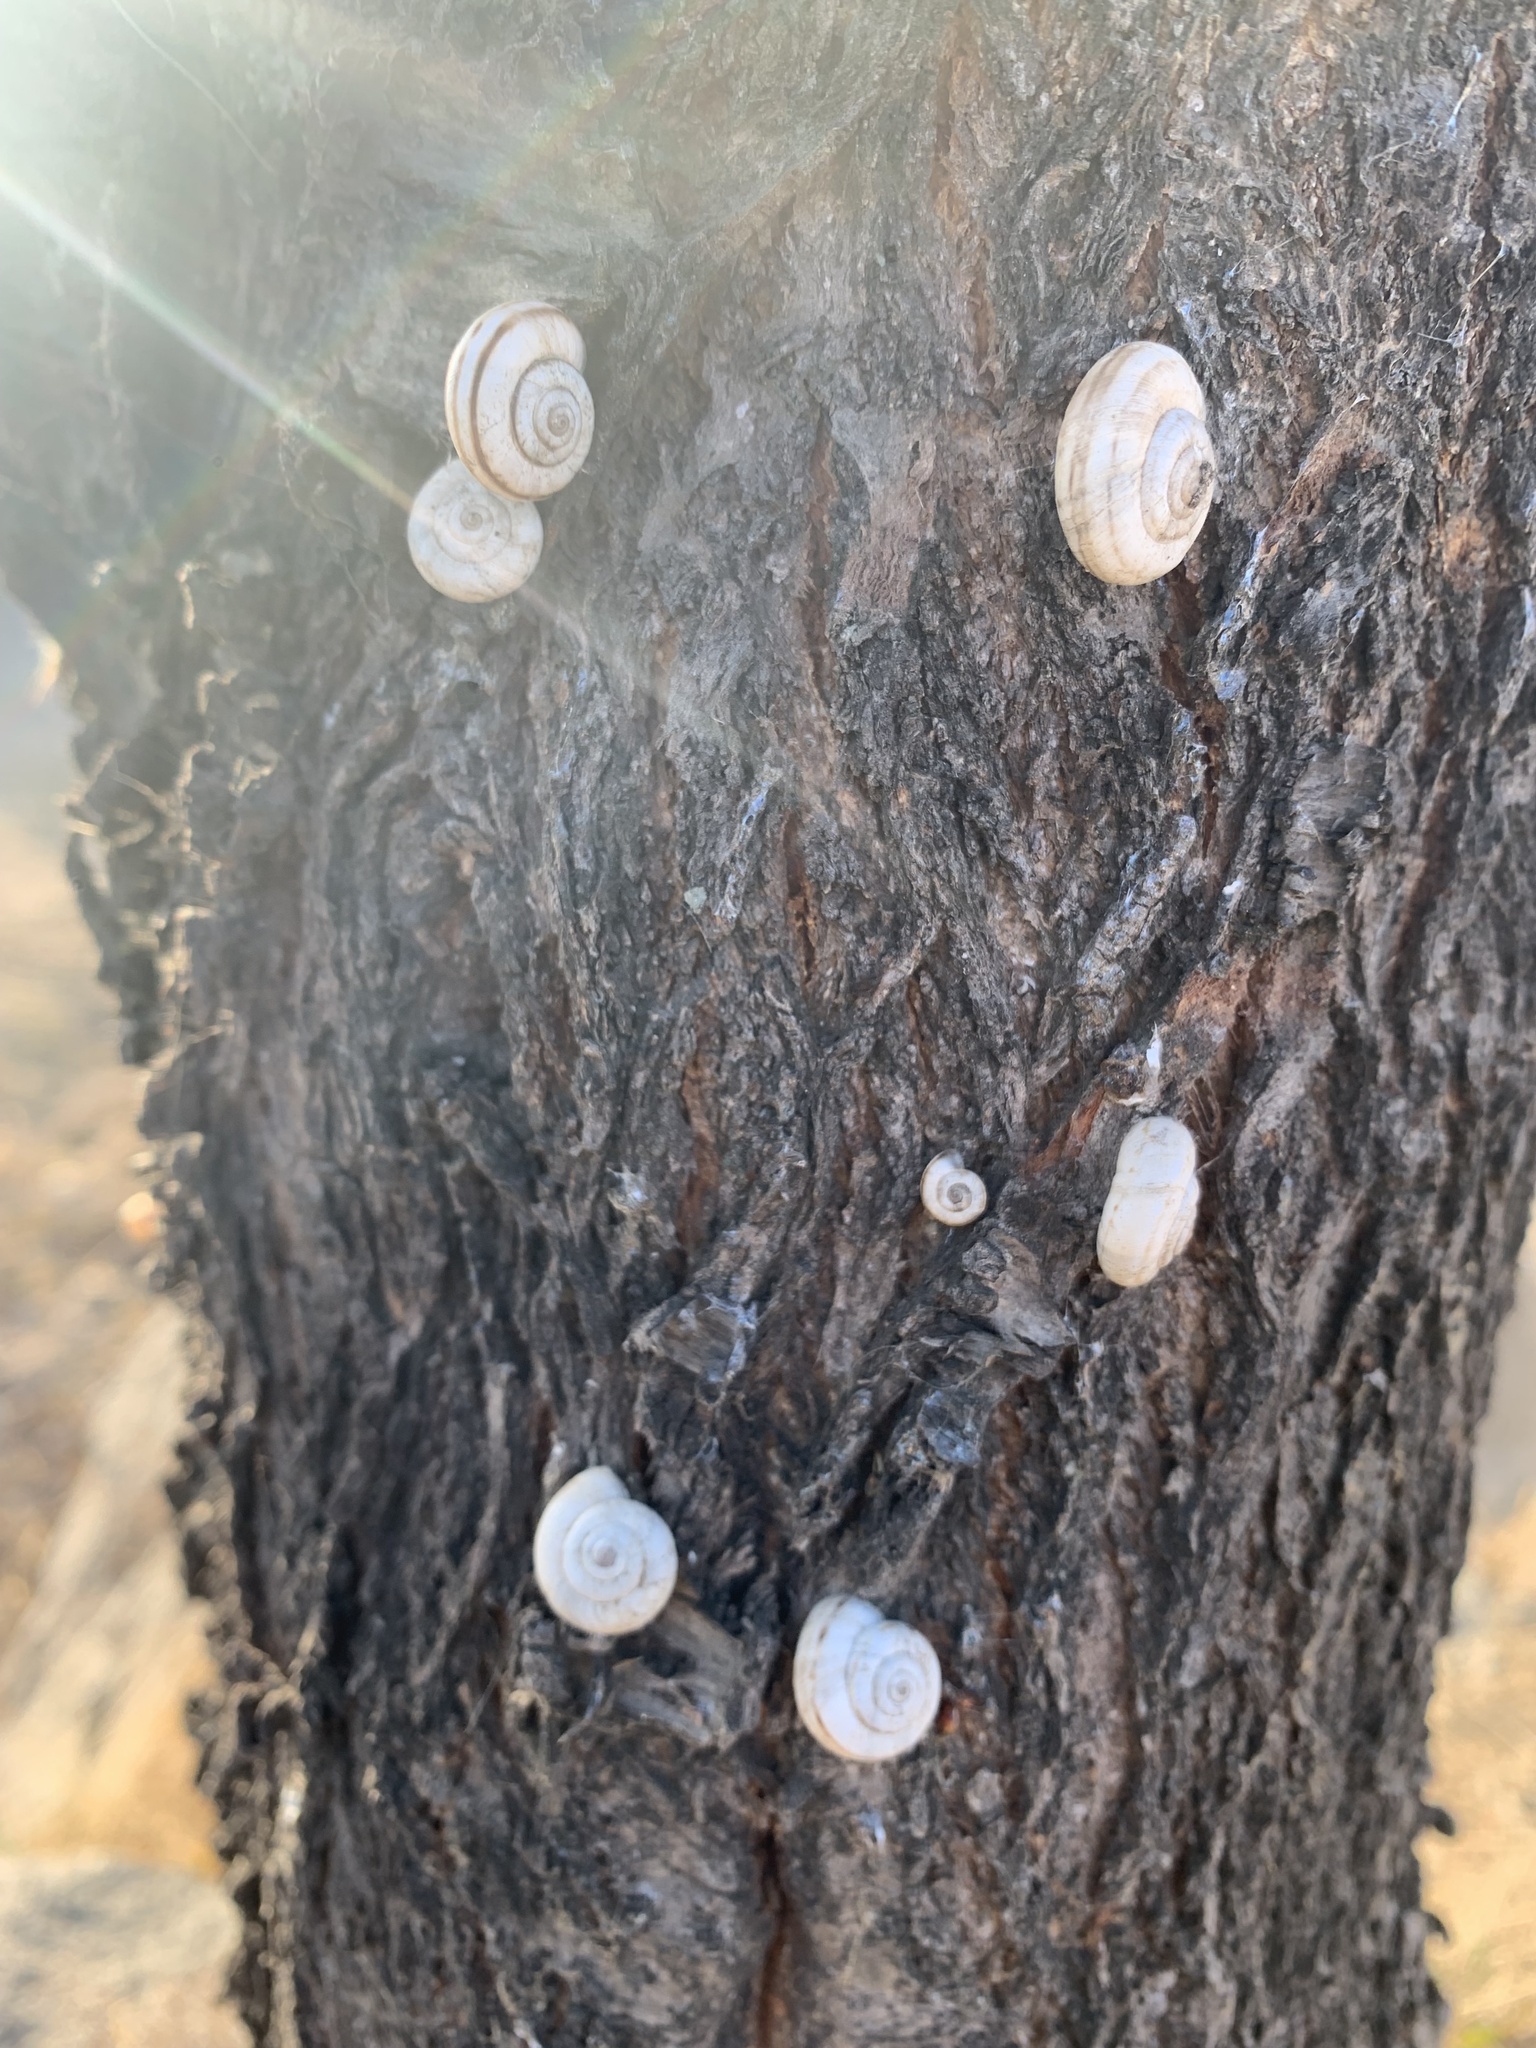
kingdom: Animalia
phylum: Mollusca
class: Gastropoda
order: Stylommatophora
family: Geomitridae
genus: Xerolenta
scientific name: Xerolenta obvia
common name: White heath snail
